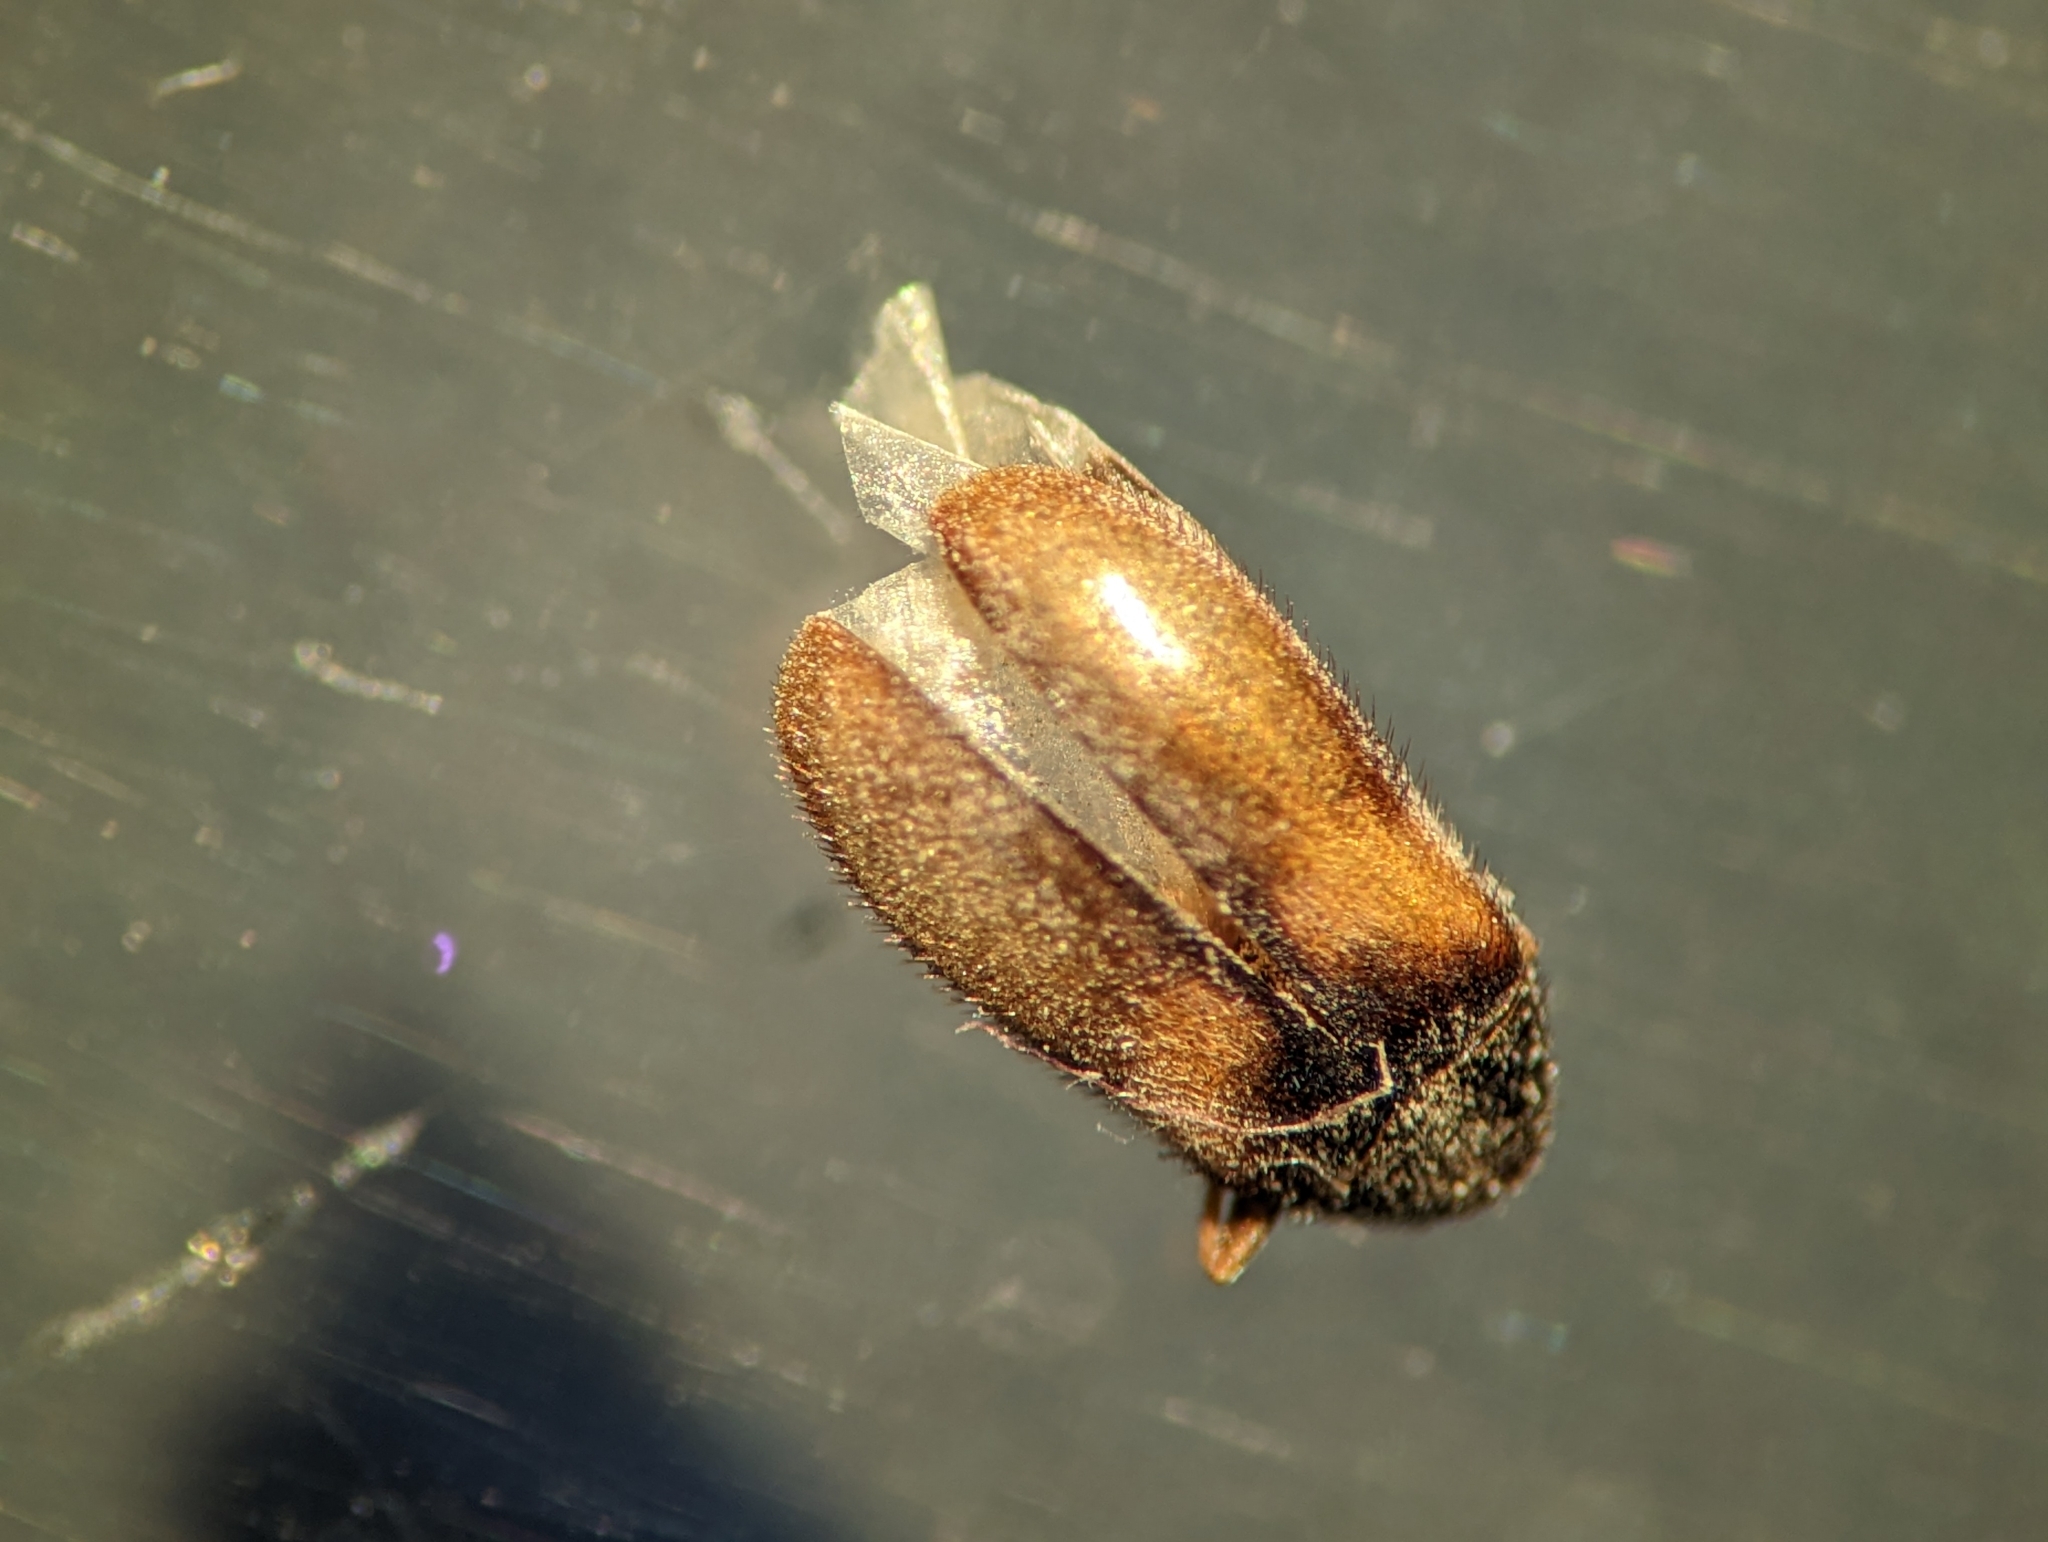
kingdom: Animalia
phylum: Arthropoda
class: Insecta
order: Coleoptera
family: Dermestidae
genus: Reesa
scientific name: Reesa vespulae
